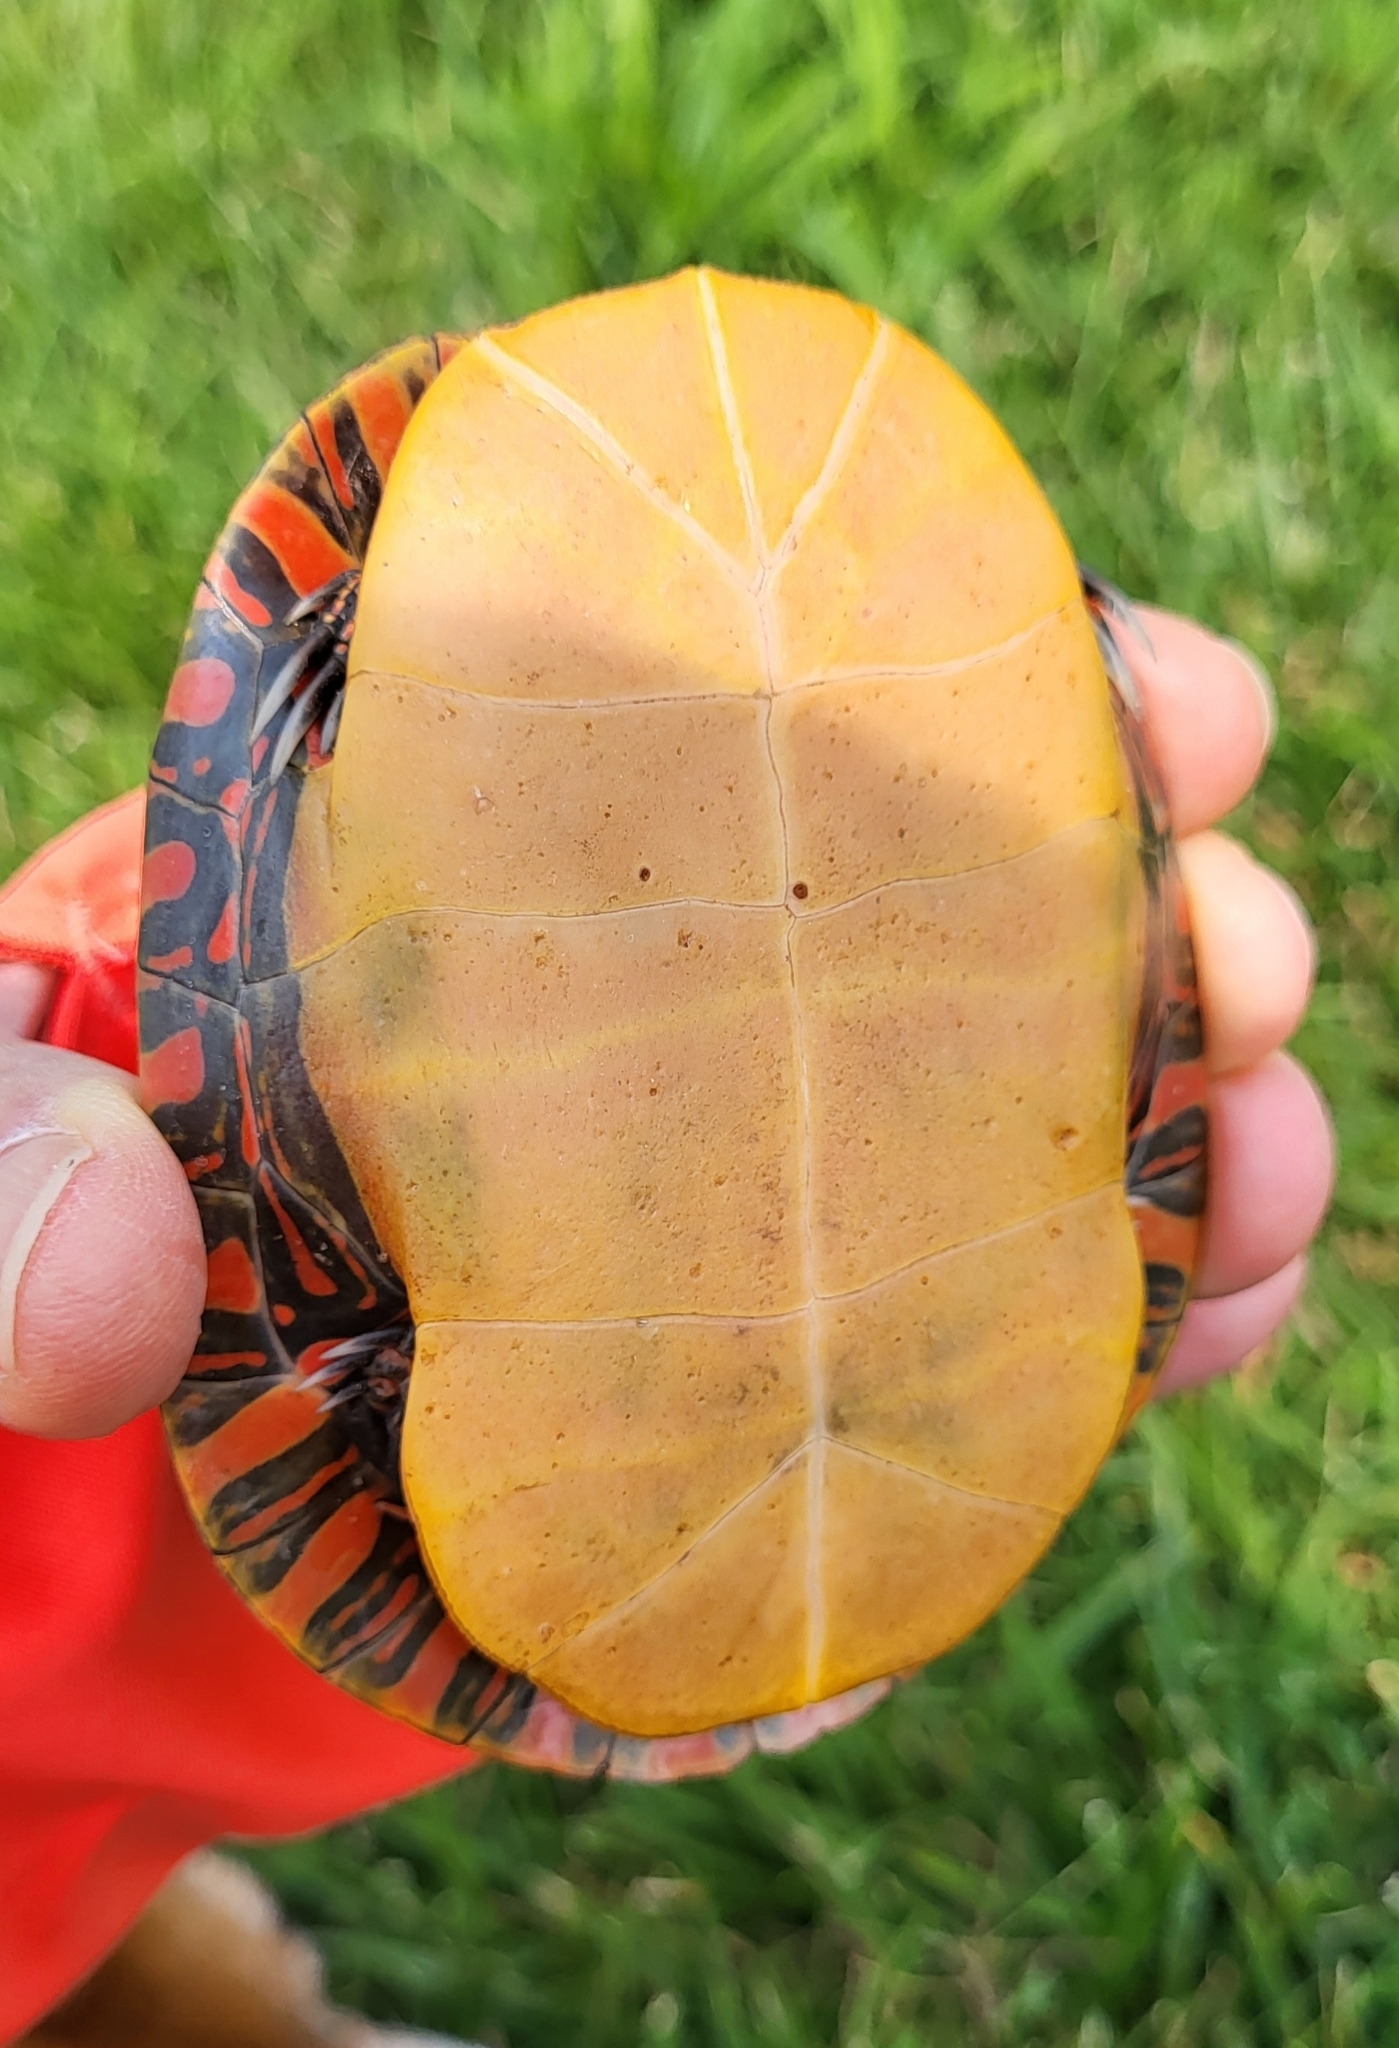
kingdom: Animalia
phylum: Chordata
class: Testudines
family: Emydidae
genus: Chrysemys
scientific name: Chrysemys picta
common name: Painted turtle
